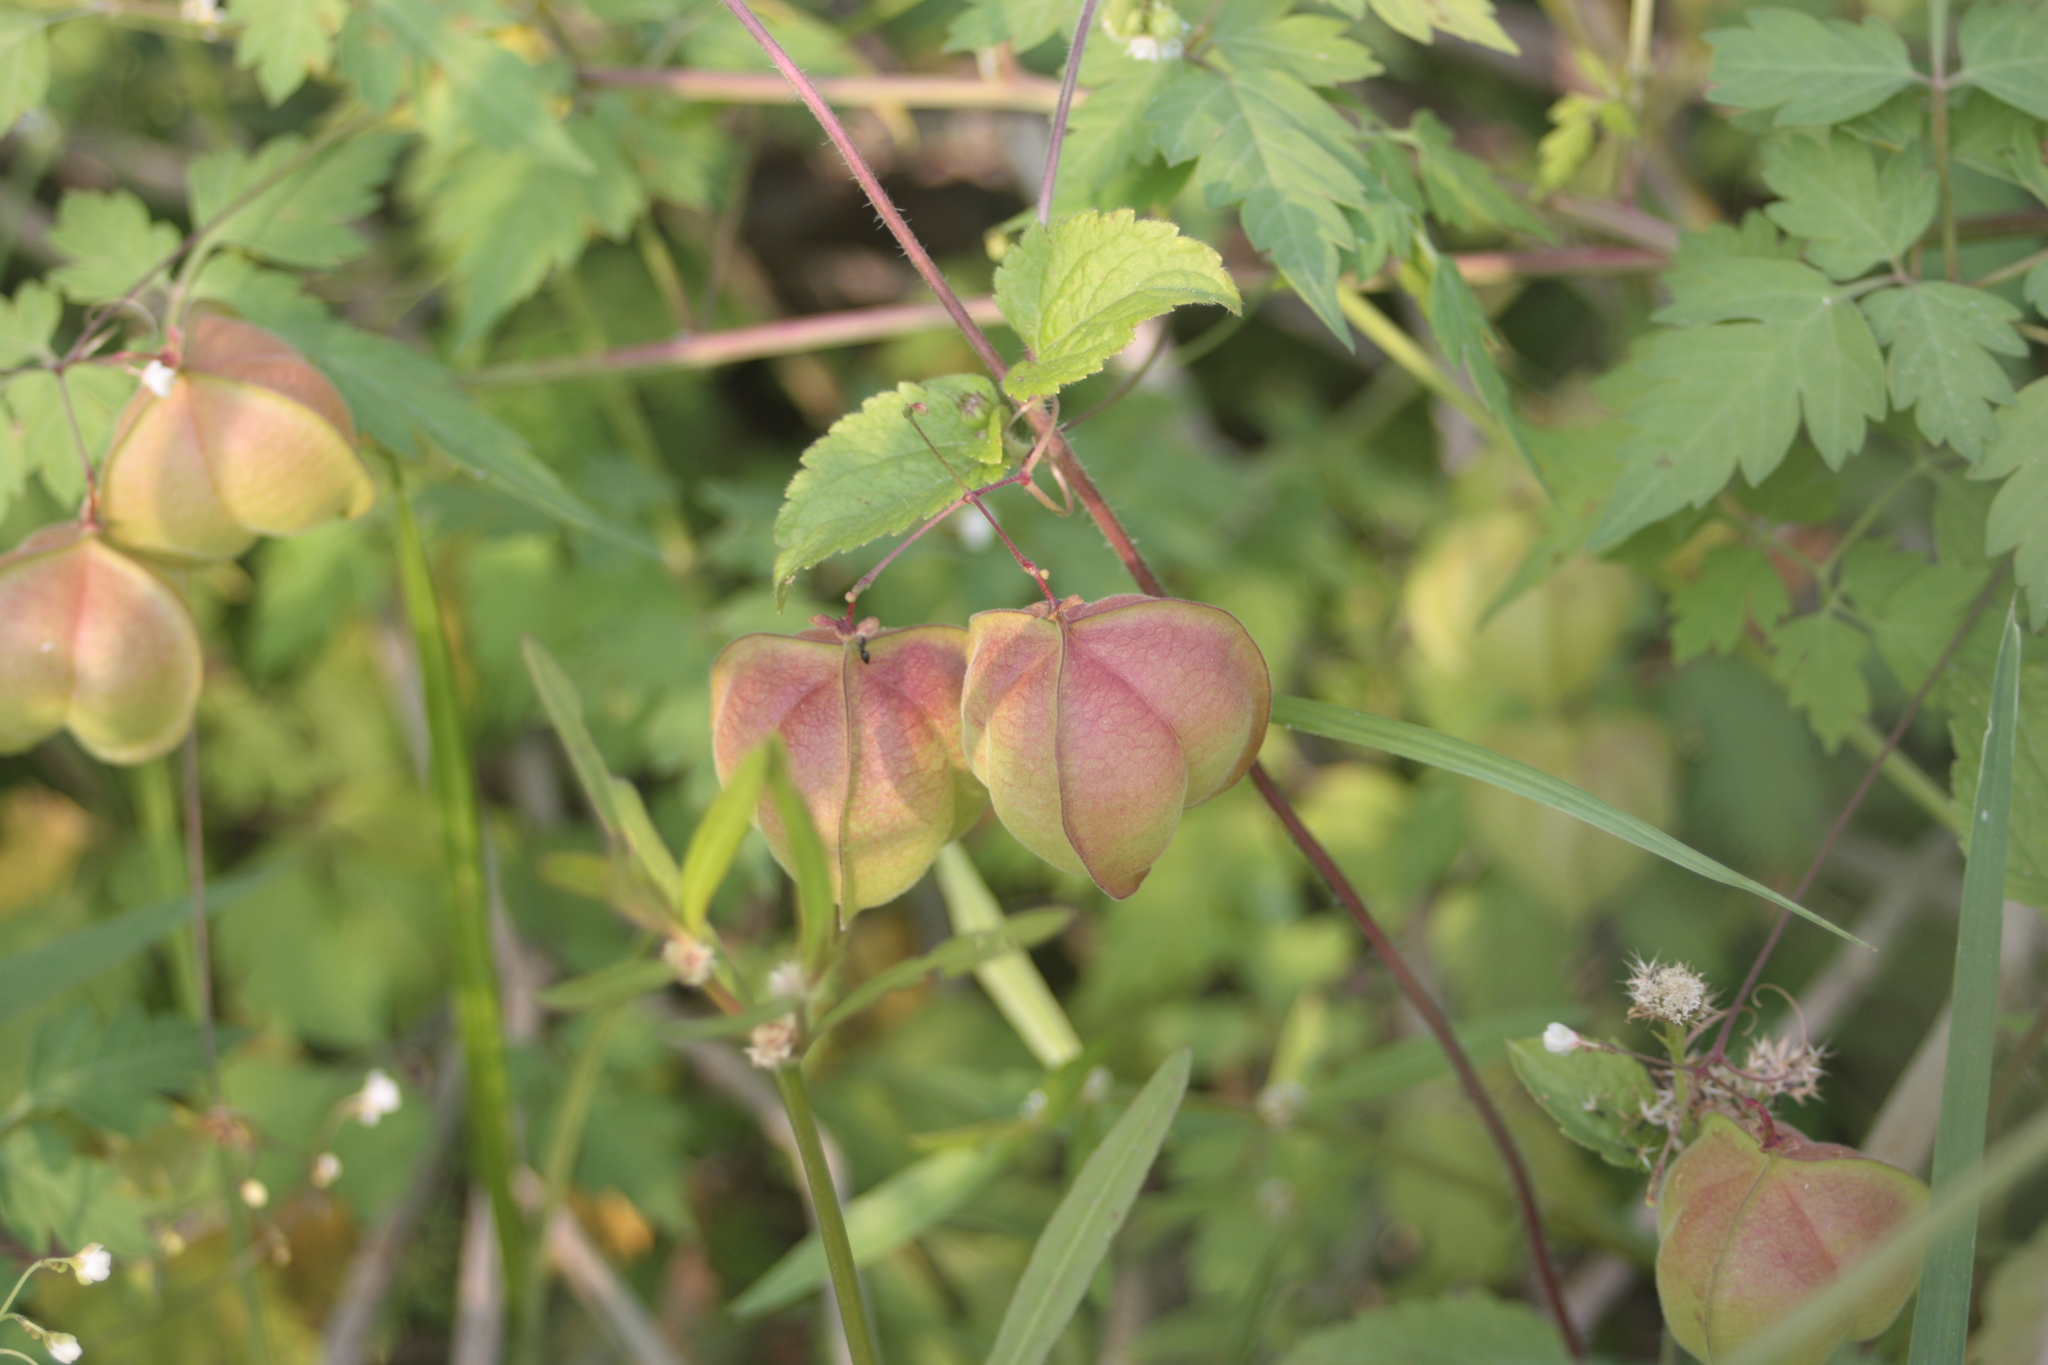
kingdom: Plantae
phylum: Tracheophyta
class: Magnoliopsida
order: Sapindales
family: Sapindaceae
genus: Cardiospermum
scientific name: Cardiospermum halicacabum
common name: Balloon vine
